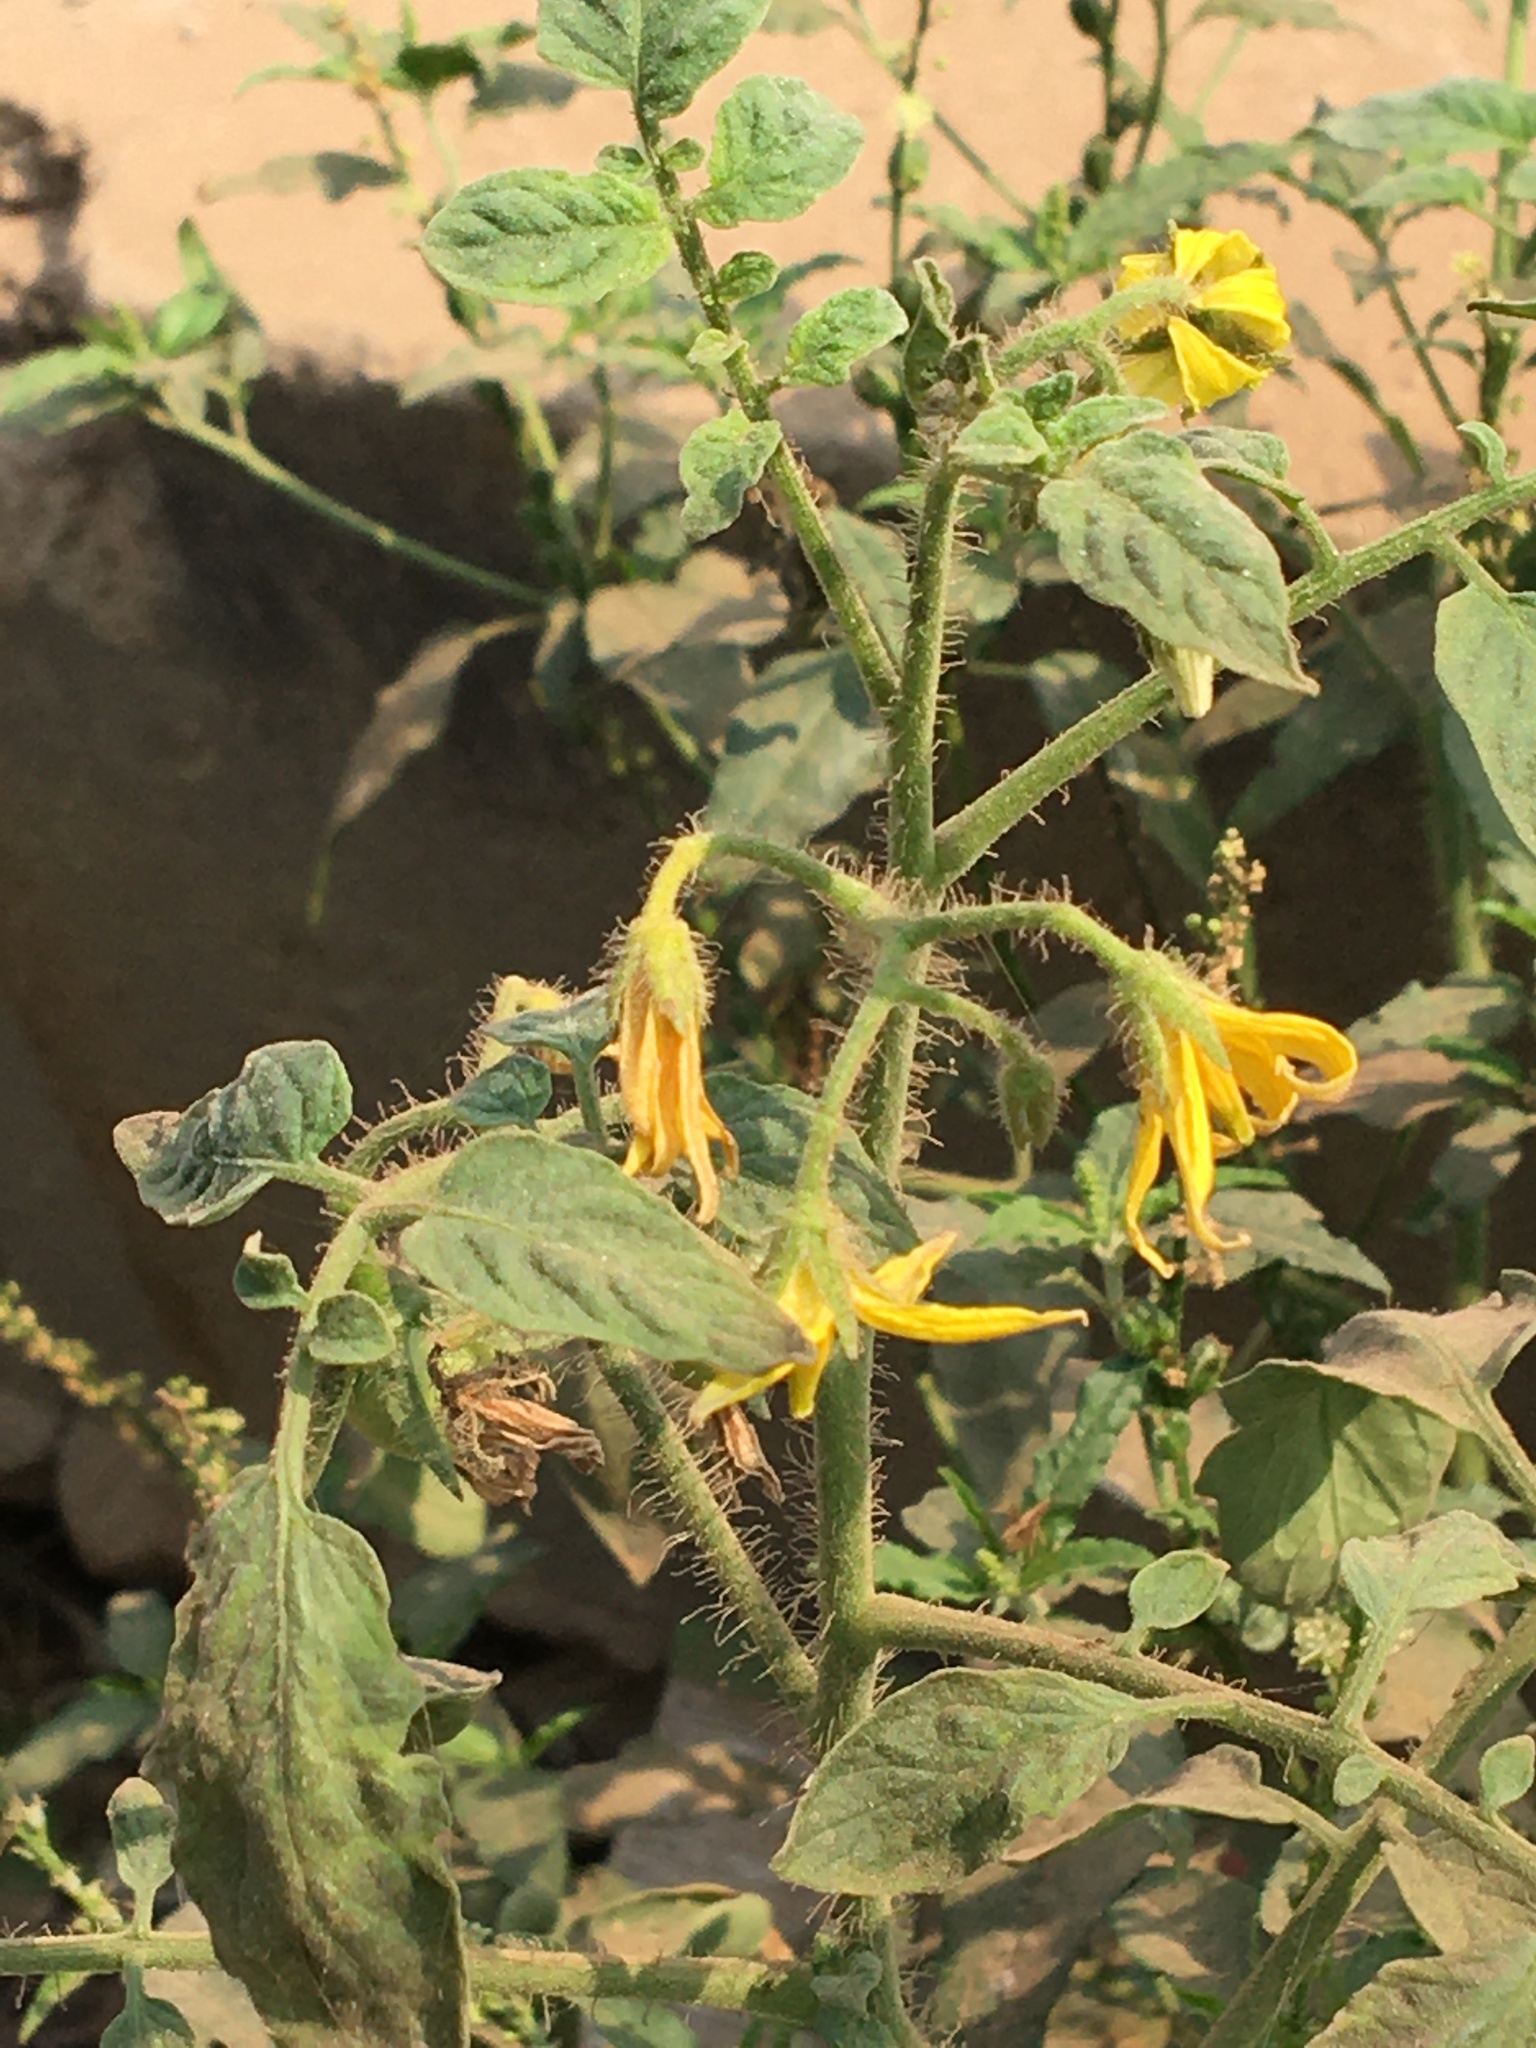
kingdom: Plantae
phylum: Tracheophyta
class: Magnoliopsida
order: Solanales
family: Solanaceae
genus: Solanum
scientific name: Solanum lycopersicum
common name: Garden tomato
